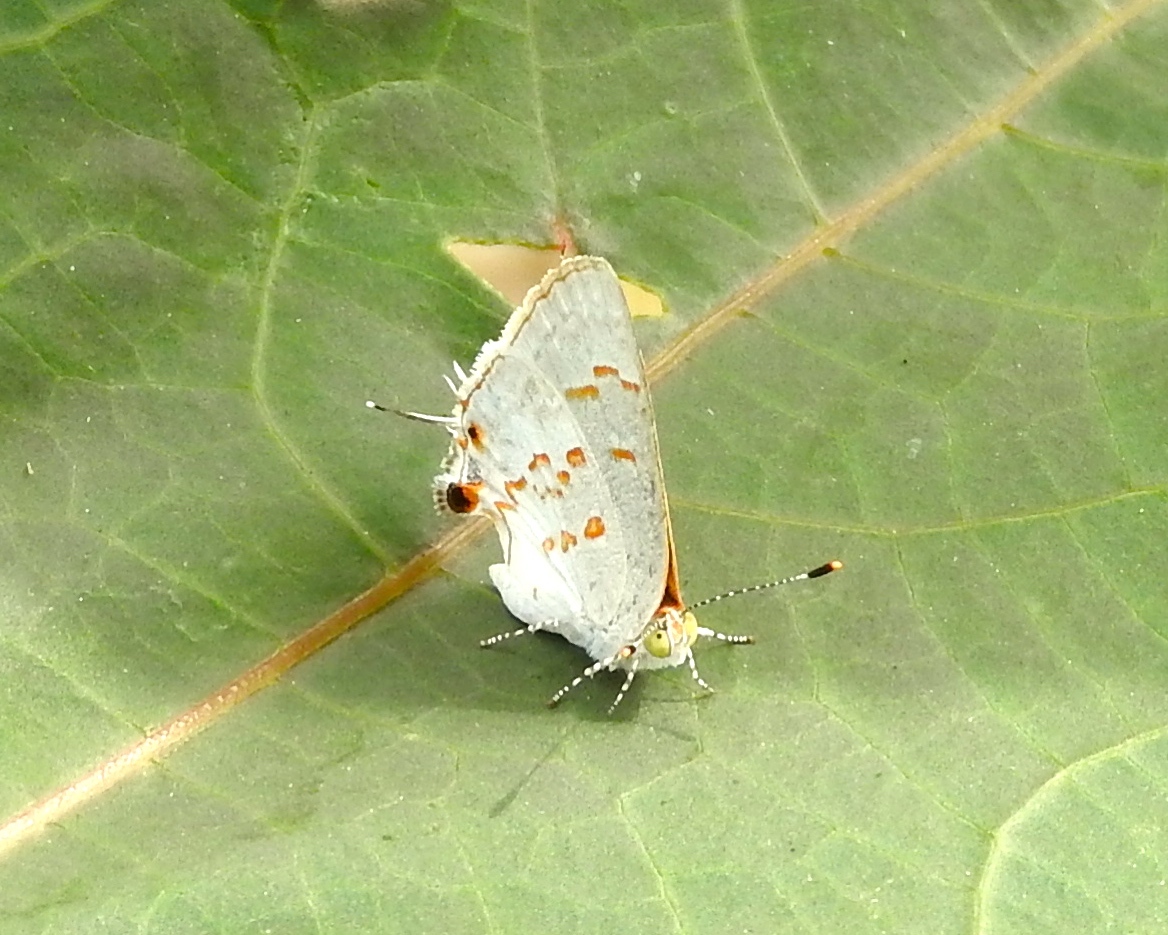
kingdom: Animalia
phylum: Arthropoda
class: Insecta
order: Lepidoptera
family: Lycaenidae
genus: Ministrymon
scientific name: Ministrymon clytie
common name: Clytie ministreak
